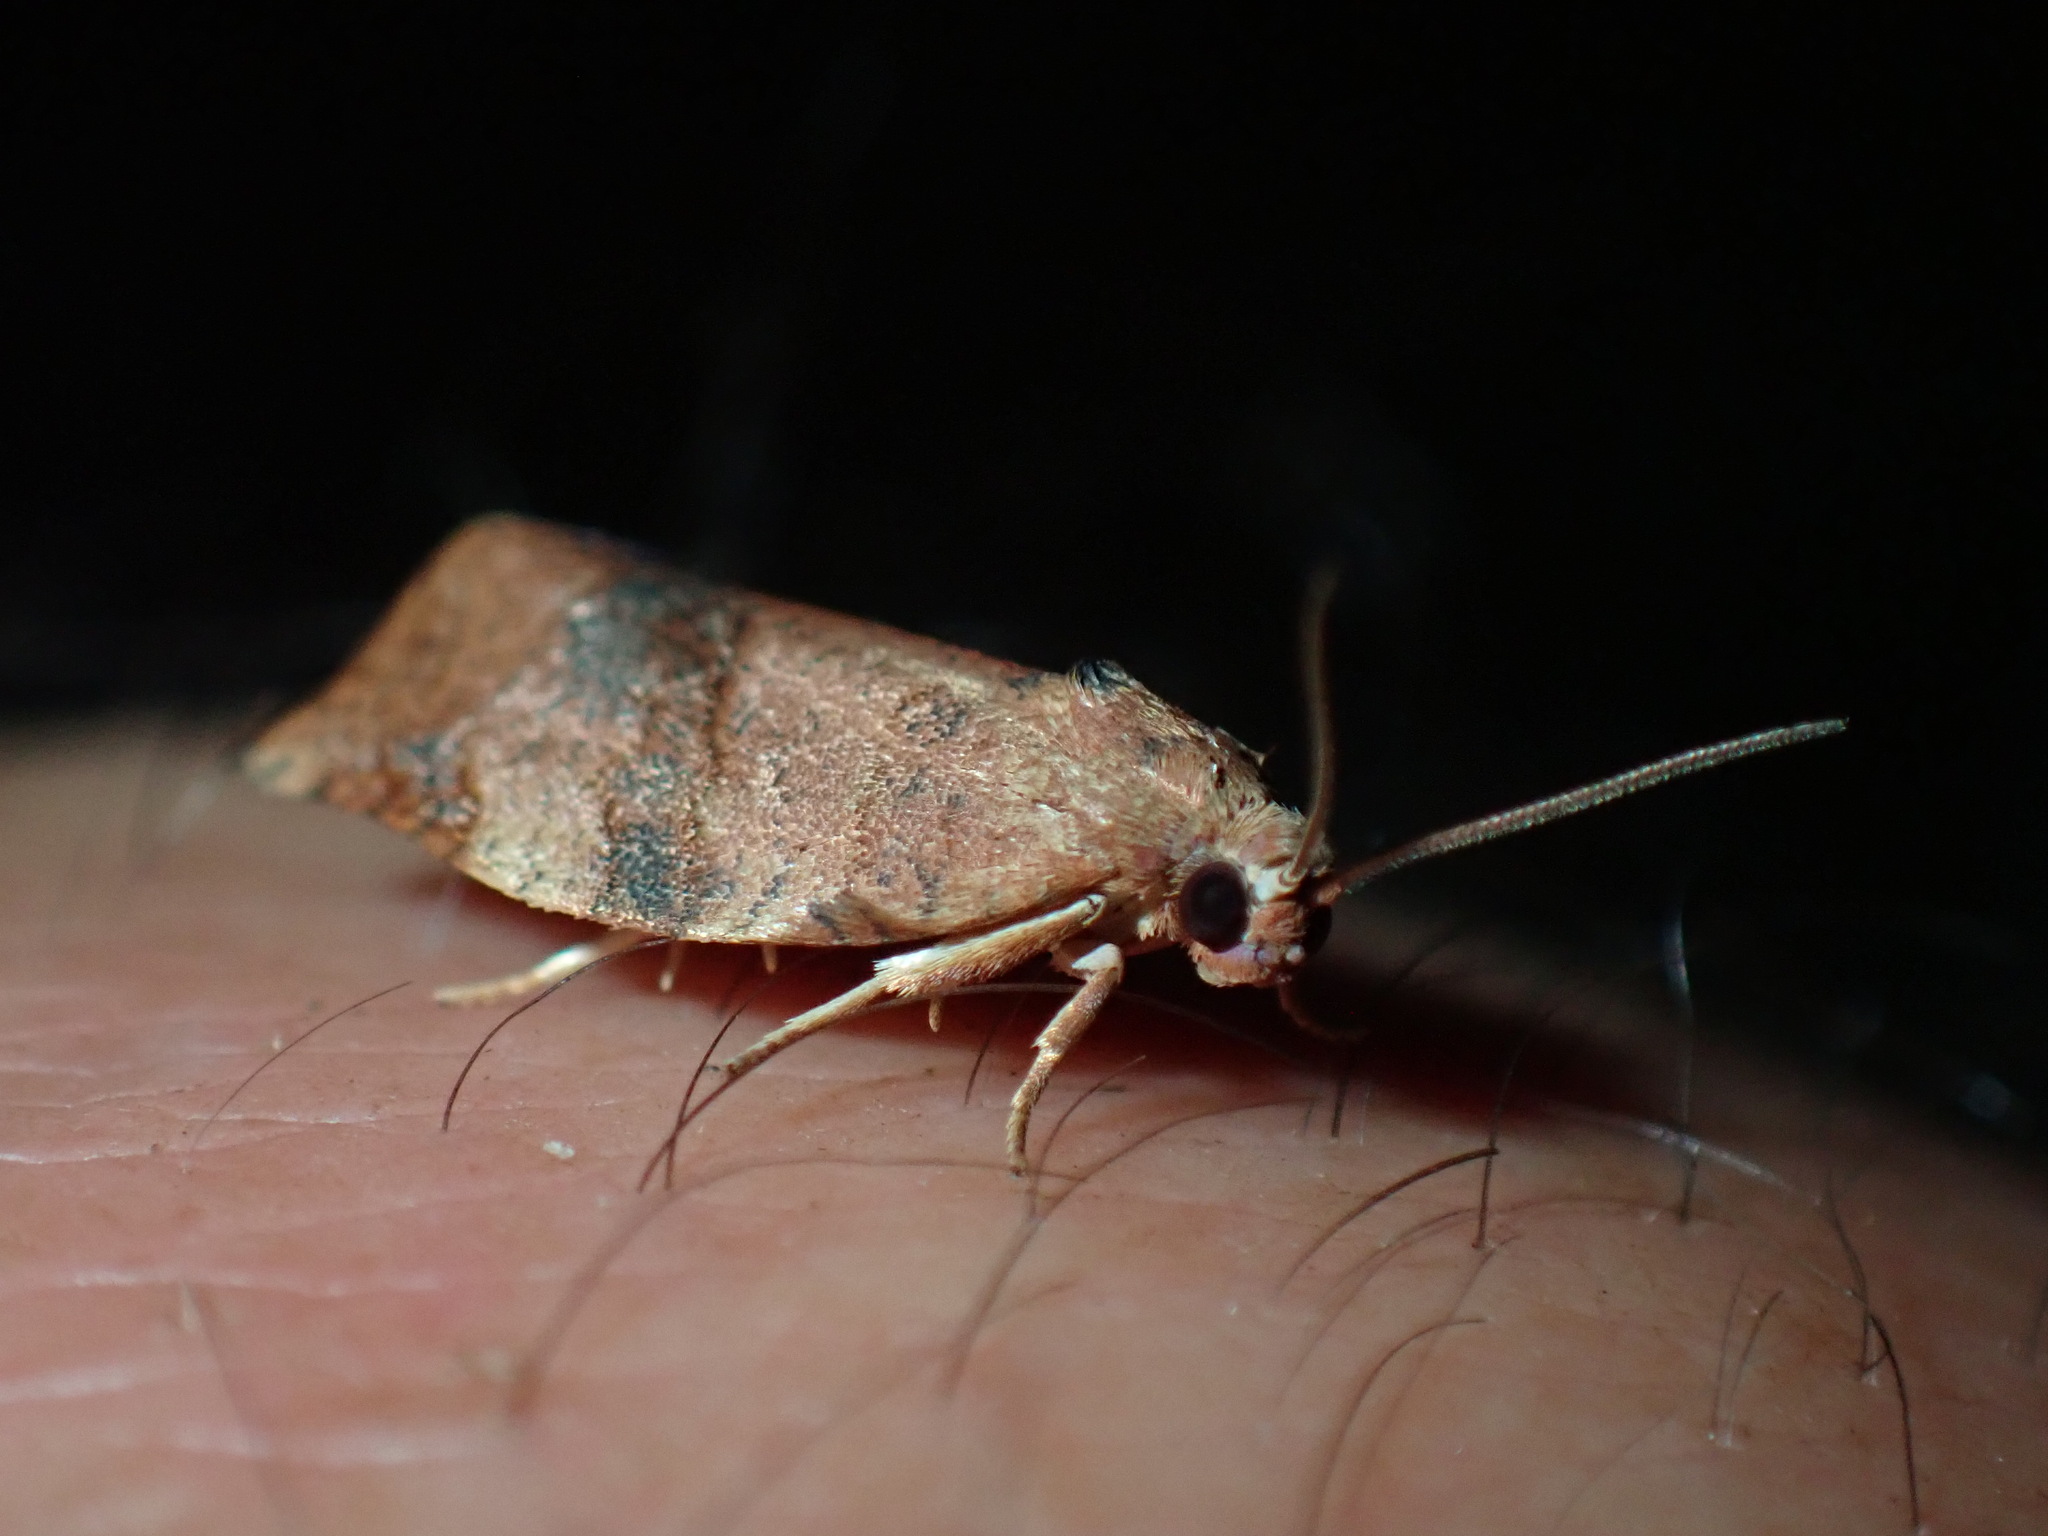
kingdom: Animalia
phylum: Arthropoda
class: Insecta
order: Lepidoptera
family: Tortricidae
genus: Choristoneura
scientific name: Choristoneura rosaceana
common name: Oblique-banded leafroller moth
